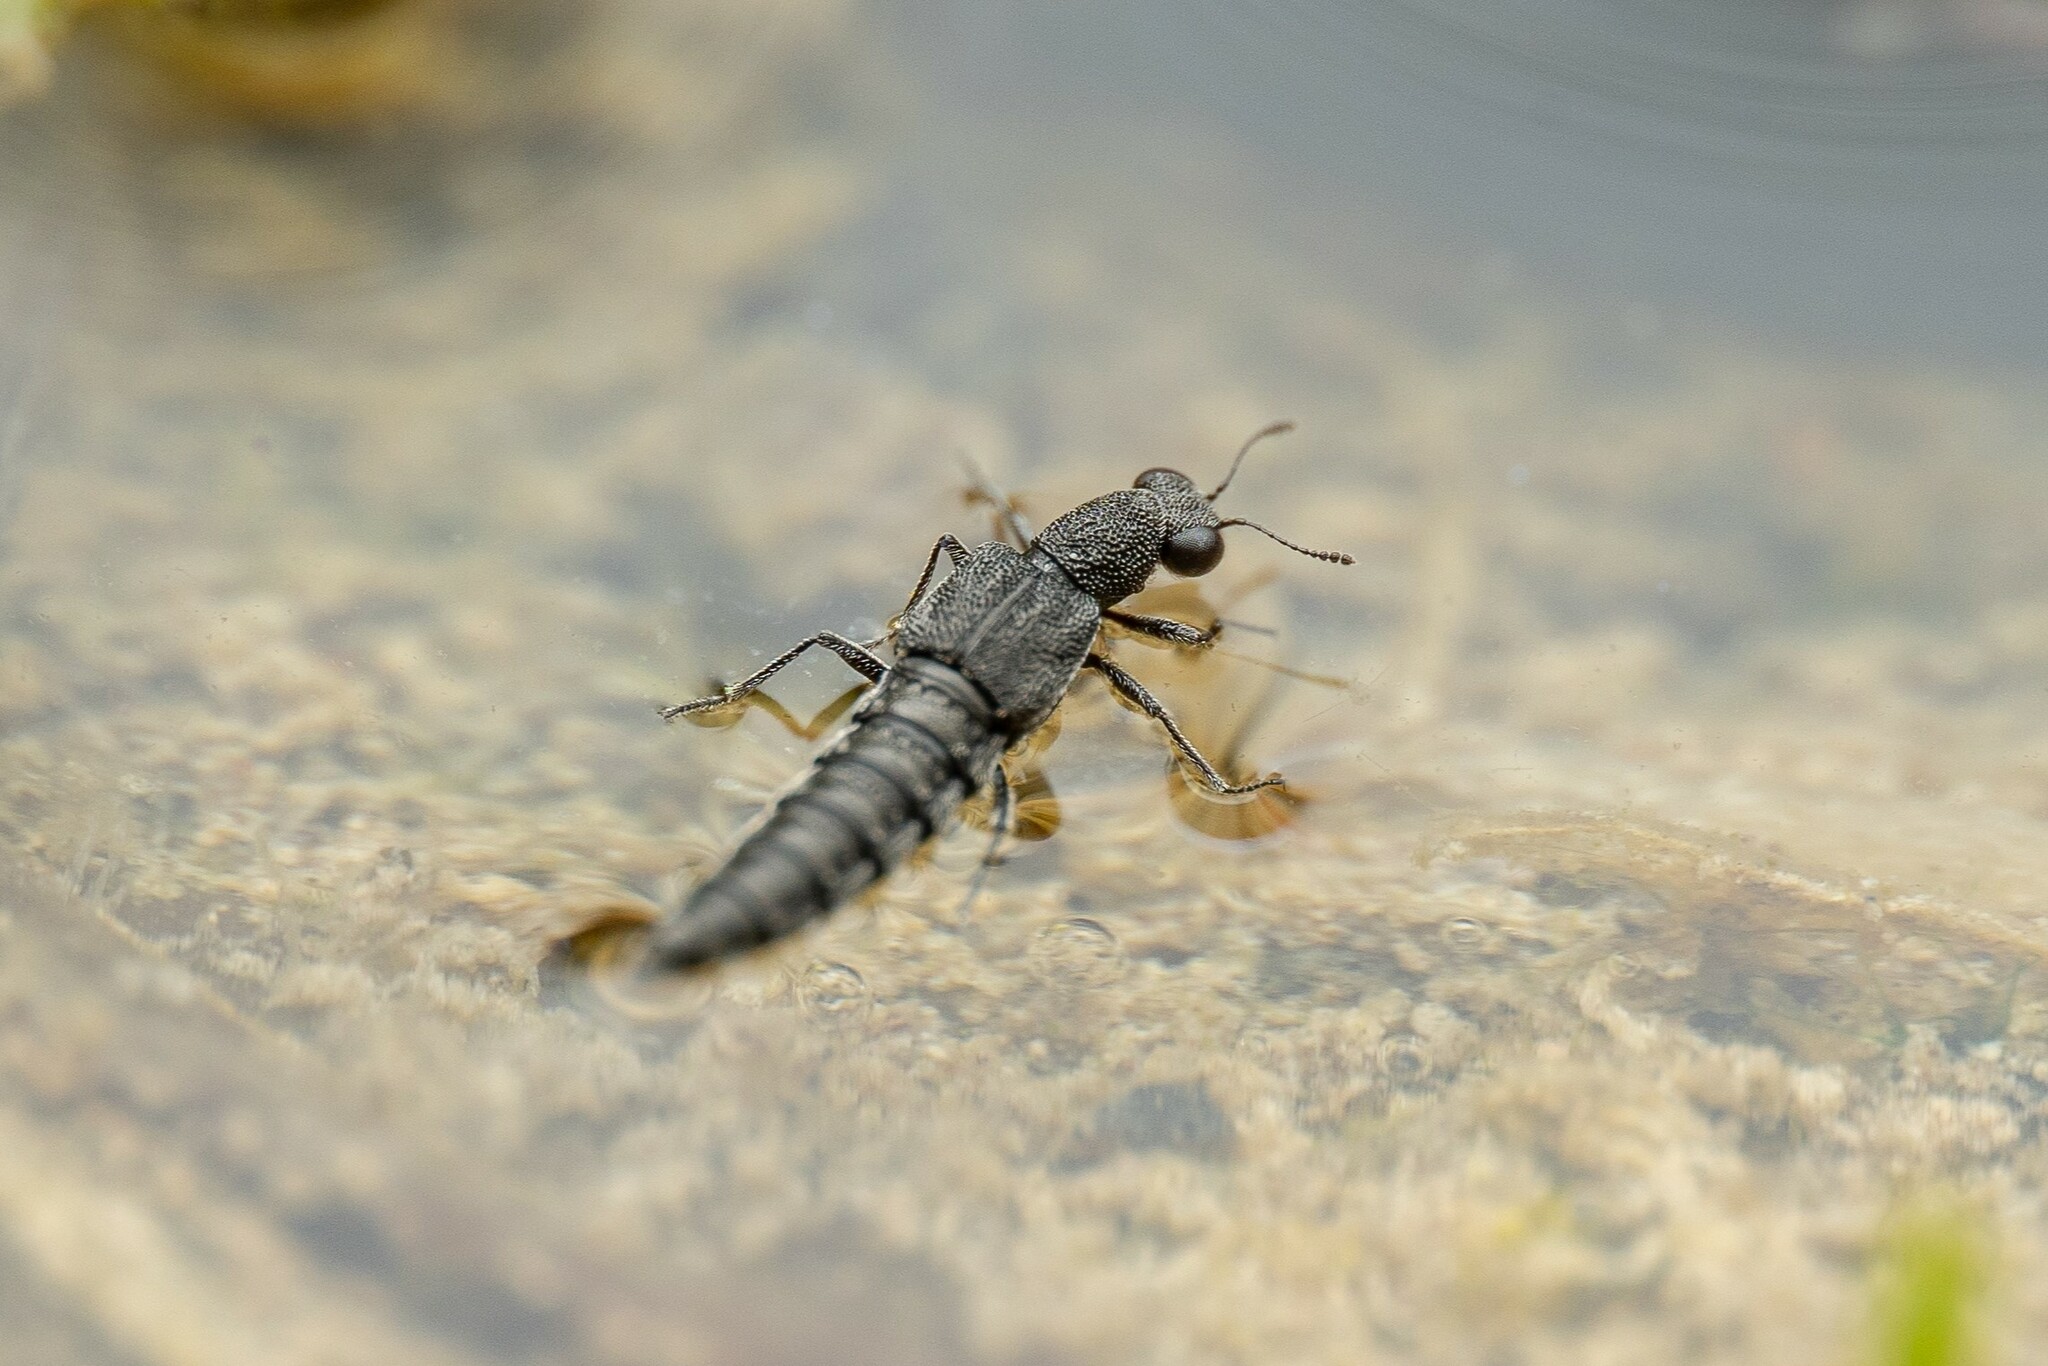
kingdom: Animalia
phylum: Arthropoda
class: Insecta
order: Coleoptera
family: Staphylinidae
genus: Stenus
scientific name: Stenus
